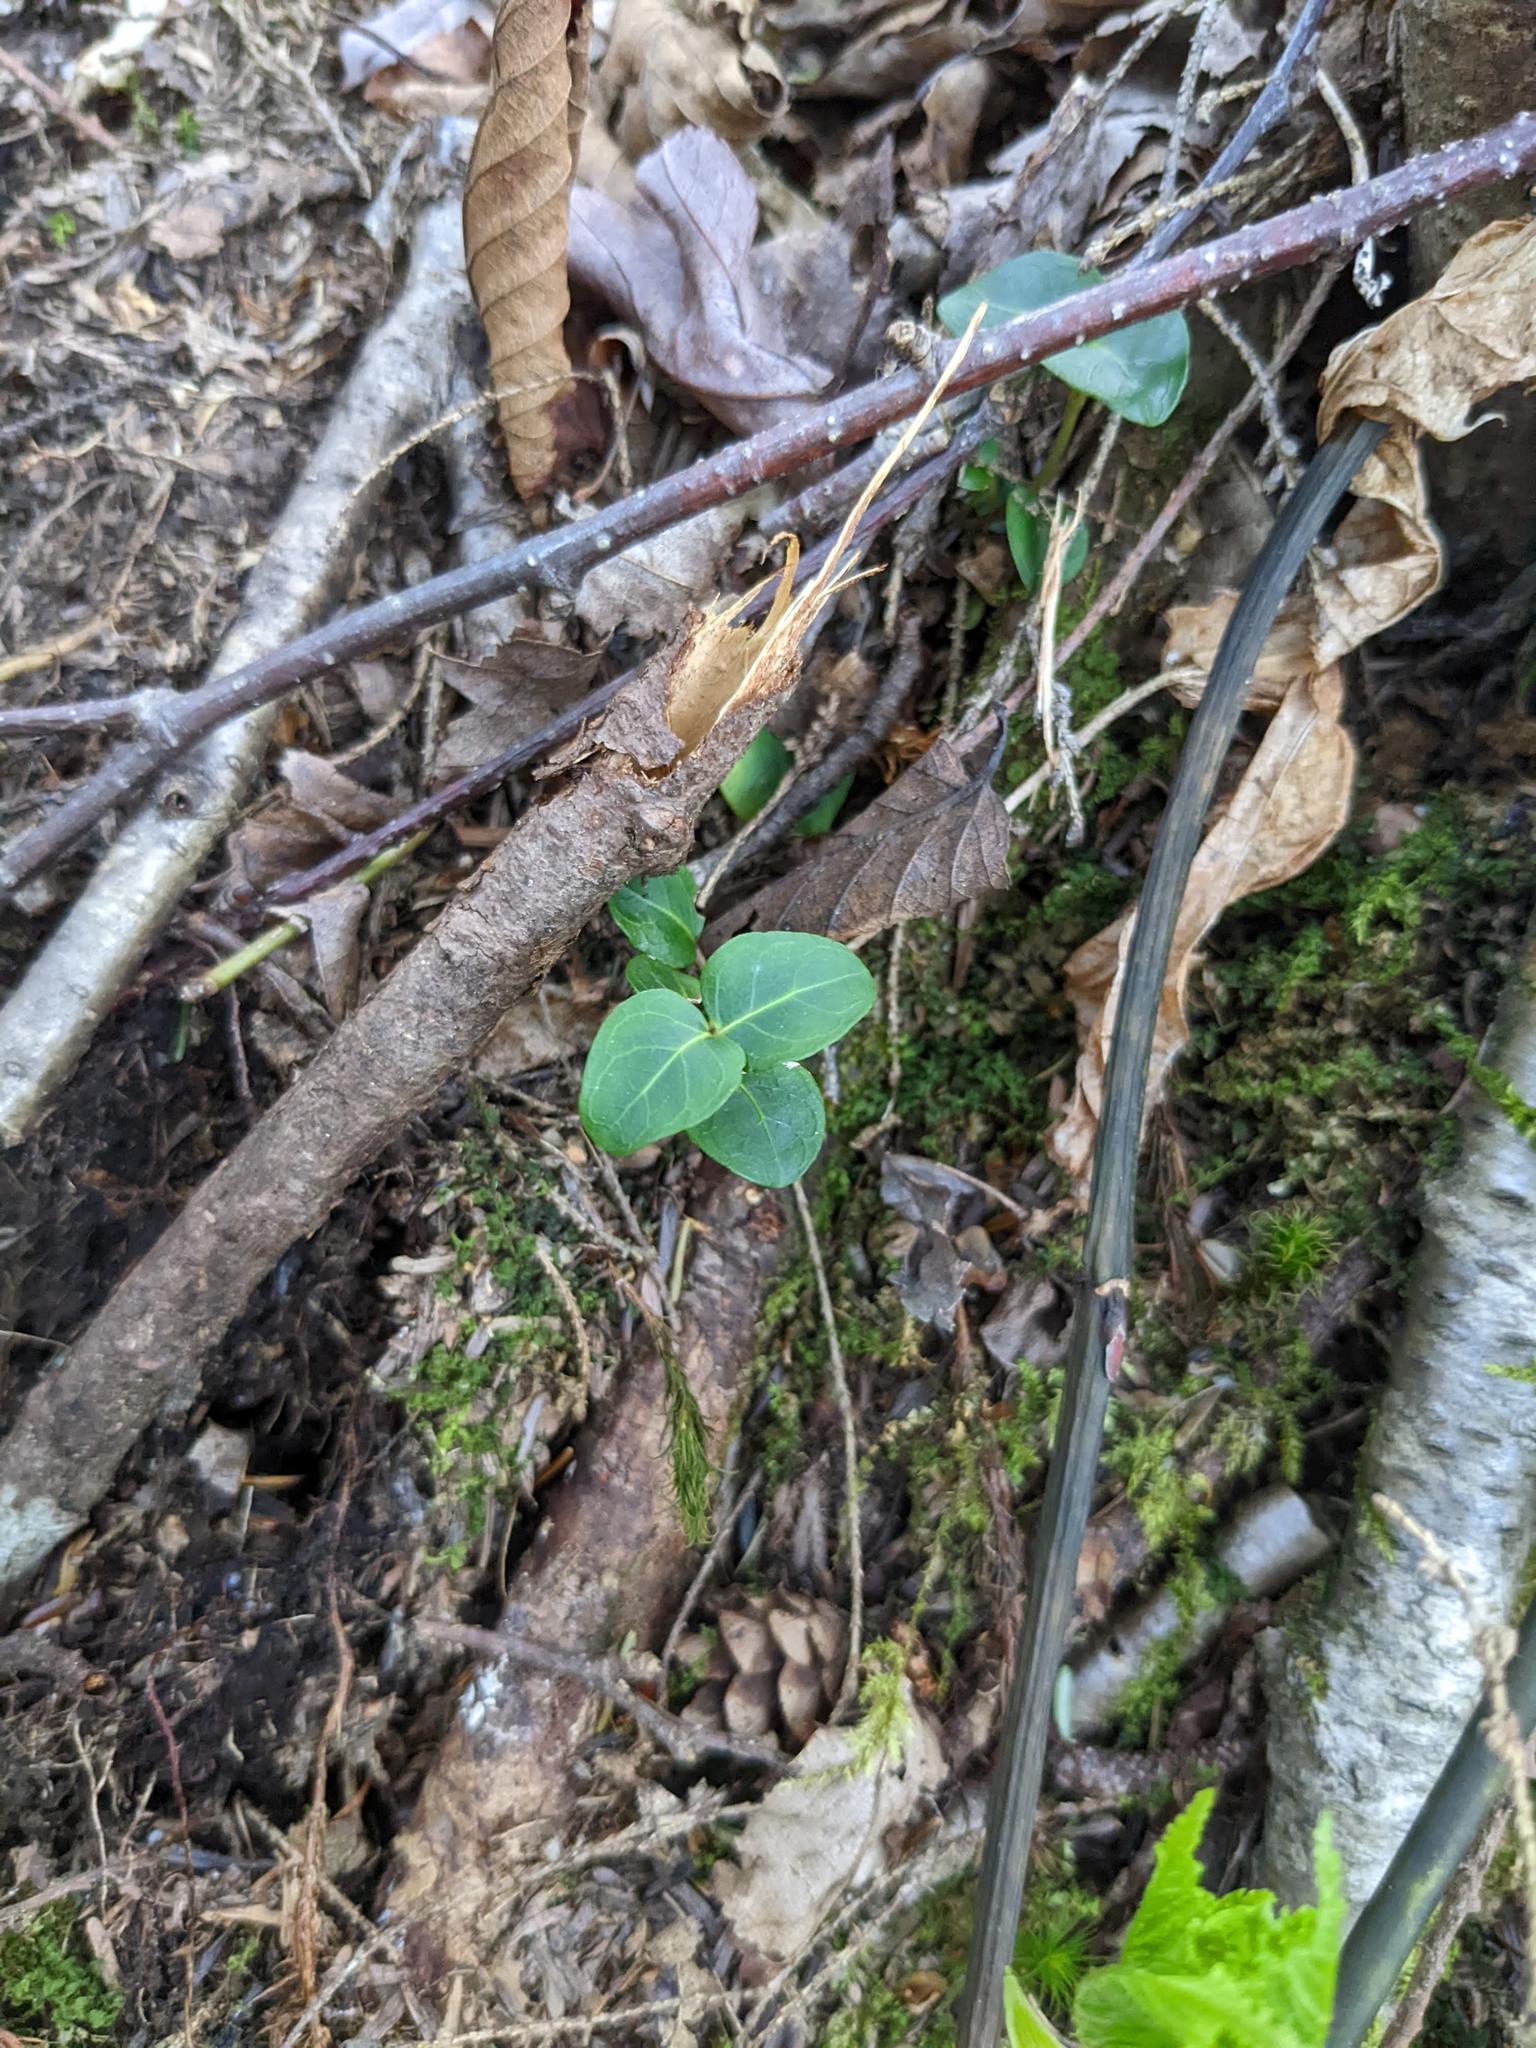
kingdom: Plantae
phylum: Tracheophyta
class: Magnoliopsida
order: Gentianales
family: Rubiaceae
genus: Mitchella
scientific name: Mitchella repens
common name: Partridge-berry
